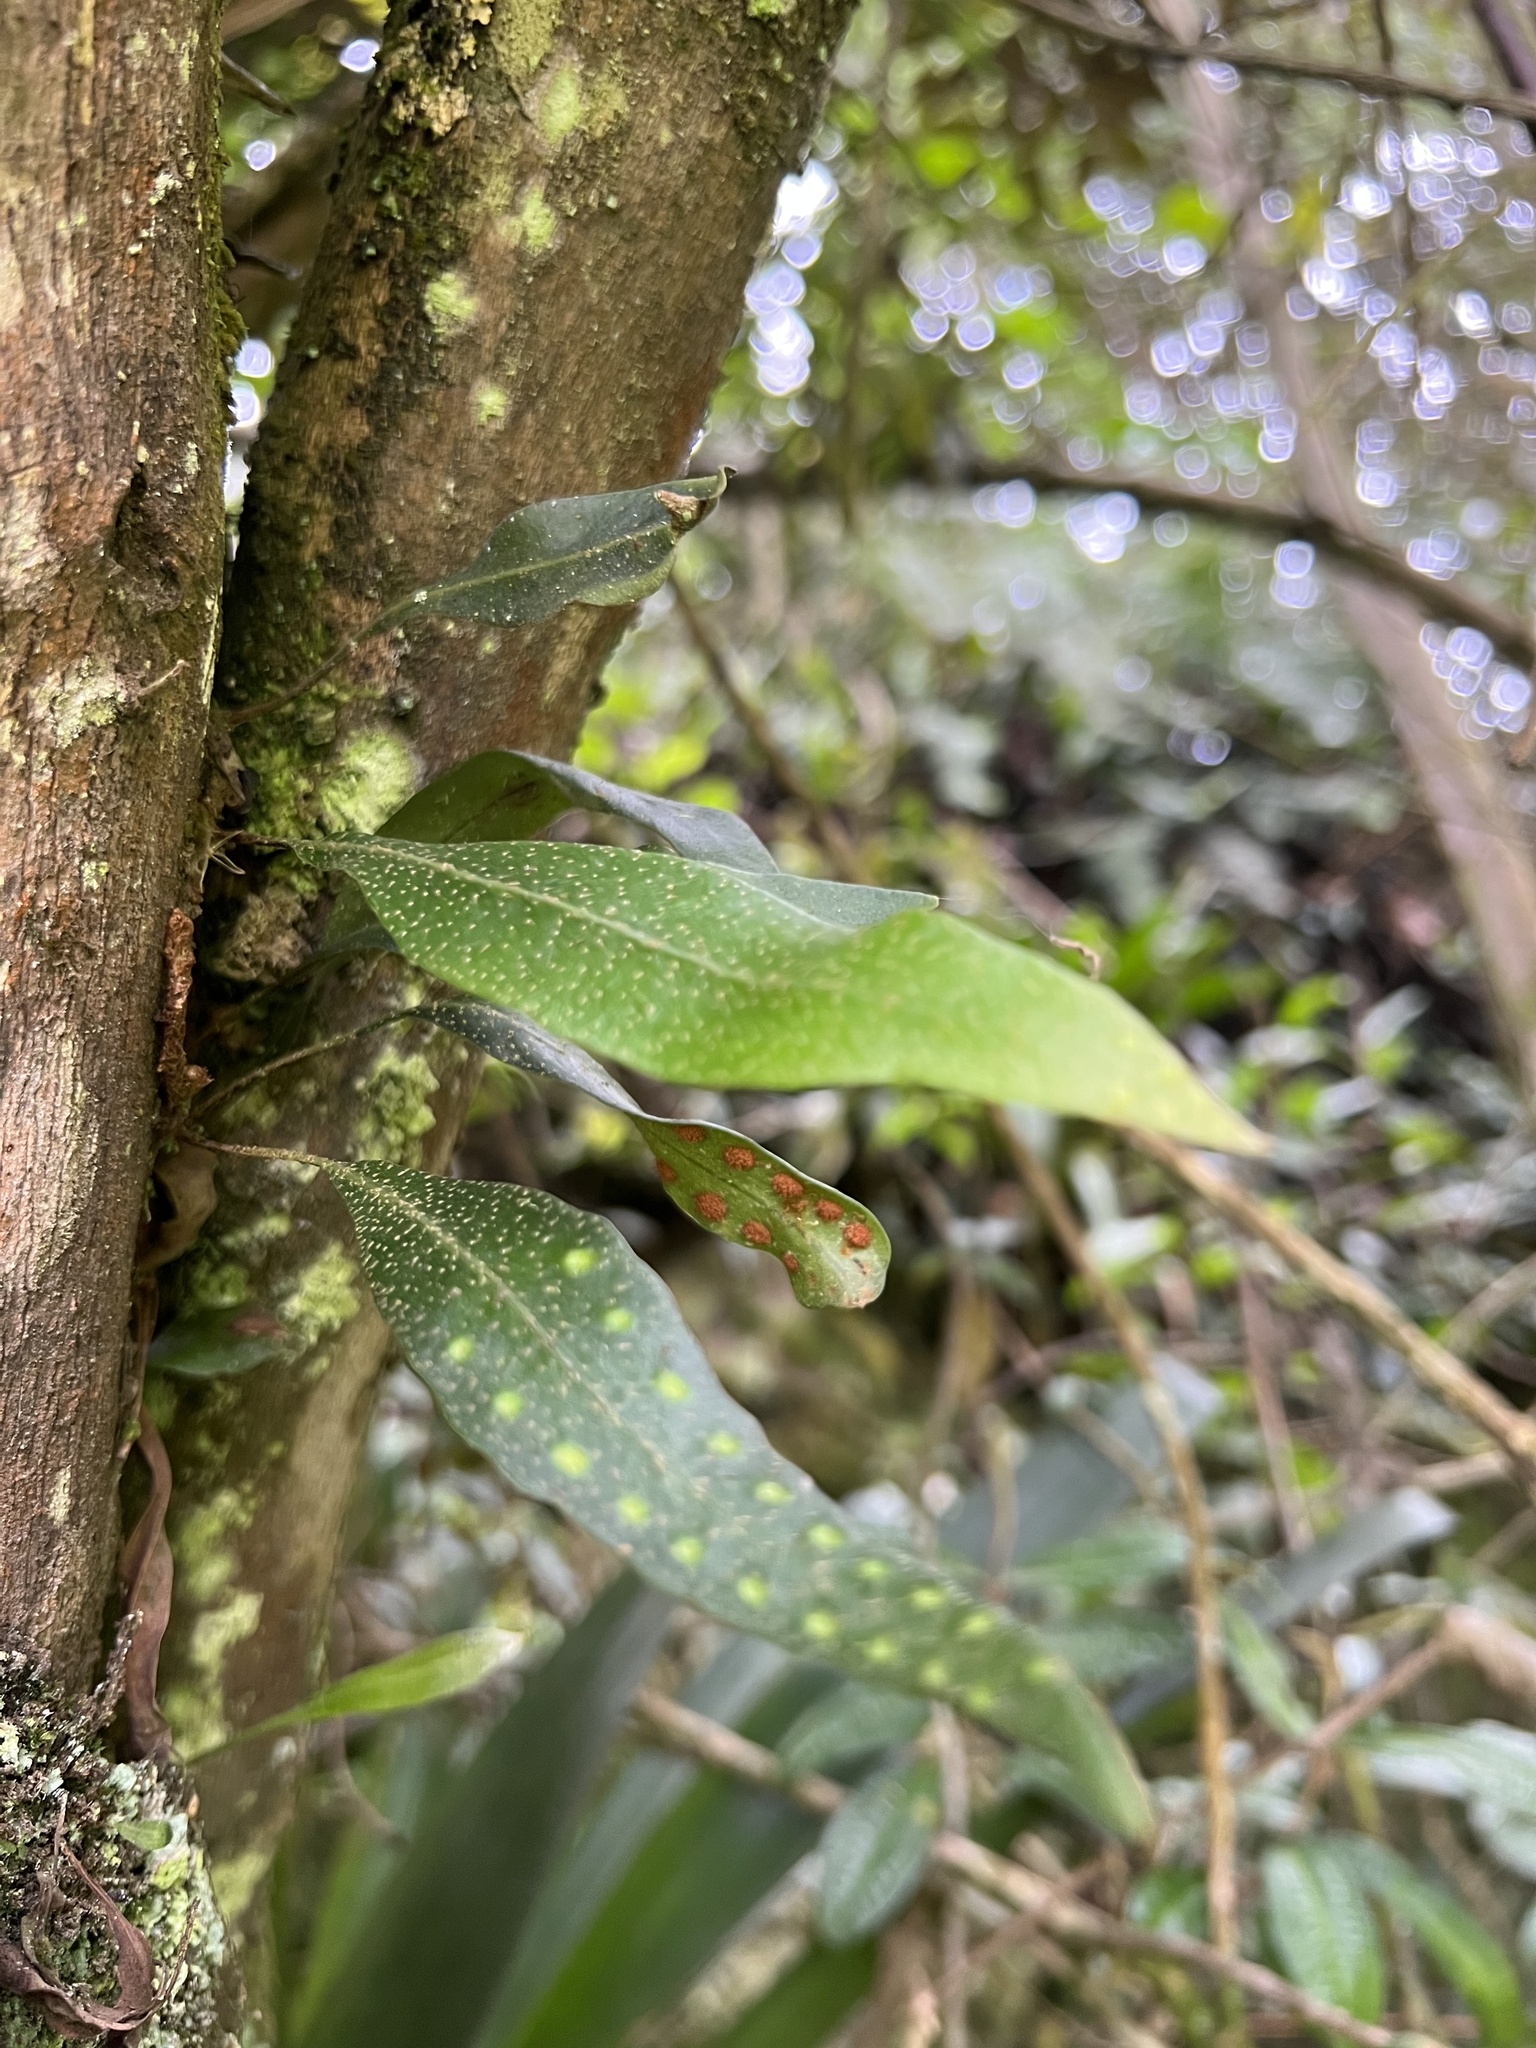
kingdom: Plantae
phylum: Tracheophyta
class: Polypodiopsida
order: Polypodiales
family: Polypodiaceae
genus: Pleopeltis
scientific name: Pleopeltis macrocarpa
